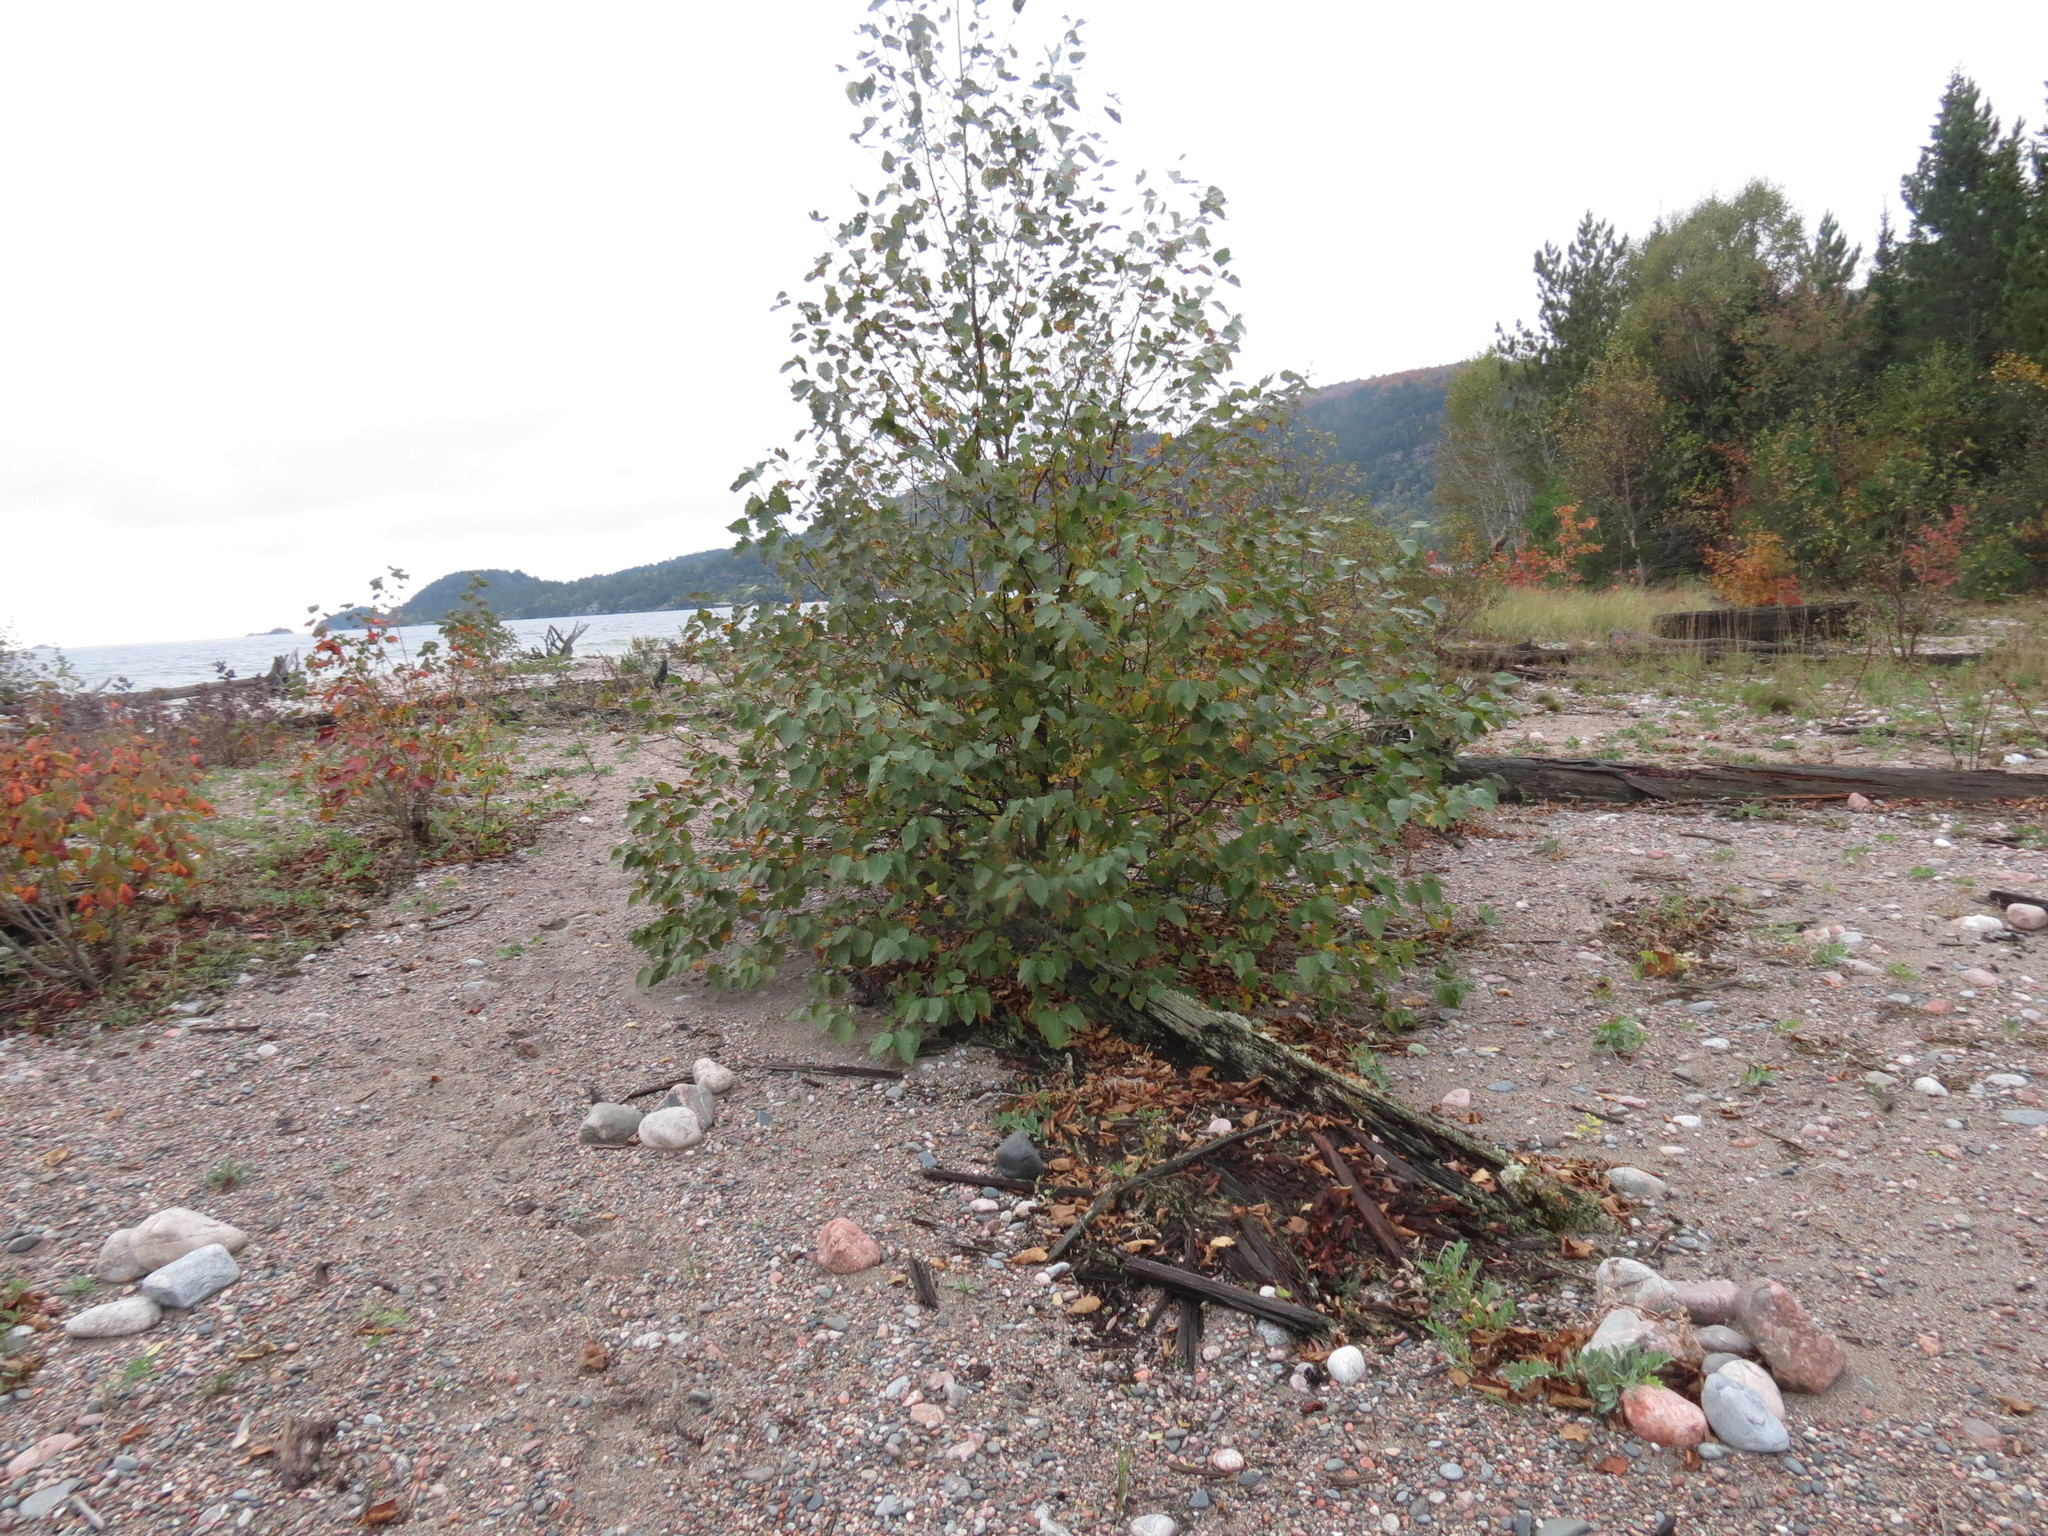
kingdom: Plantae
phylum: Tracheophyta
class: Magnoliopsida
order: Fagales
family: Betulaceae
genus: Betula
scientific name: Betula papyrifera
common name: Paper birch
